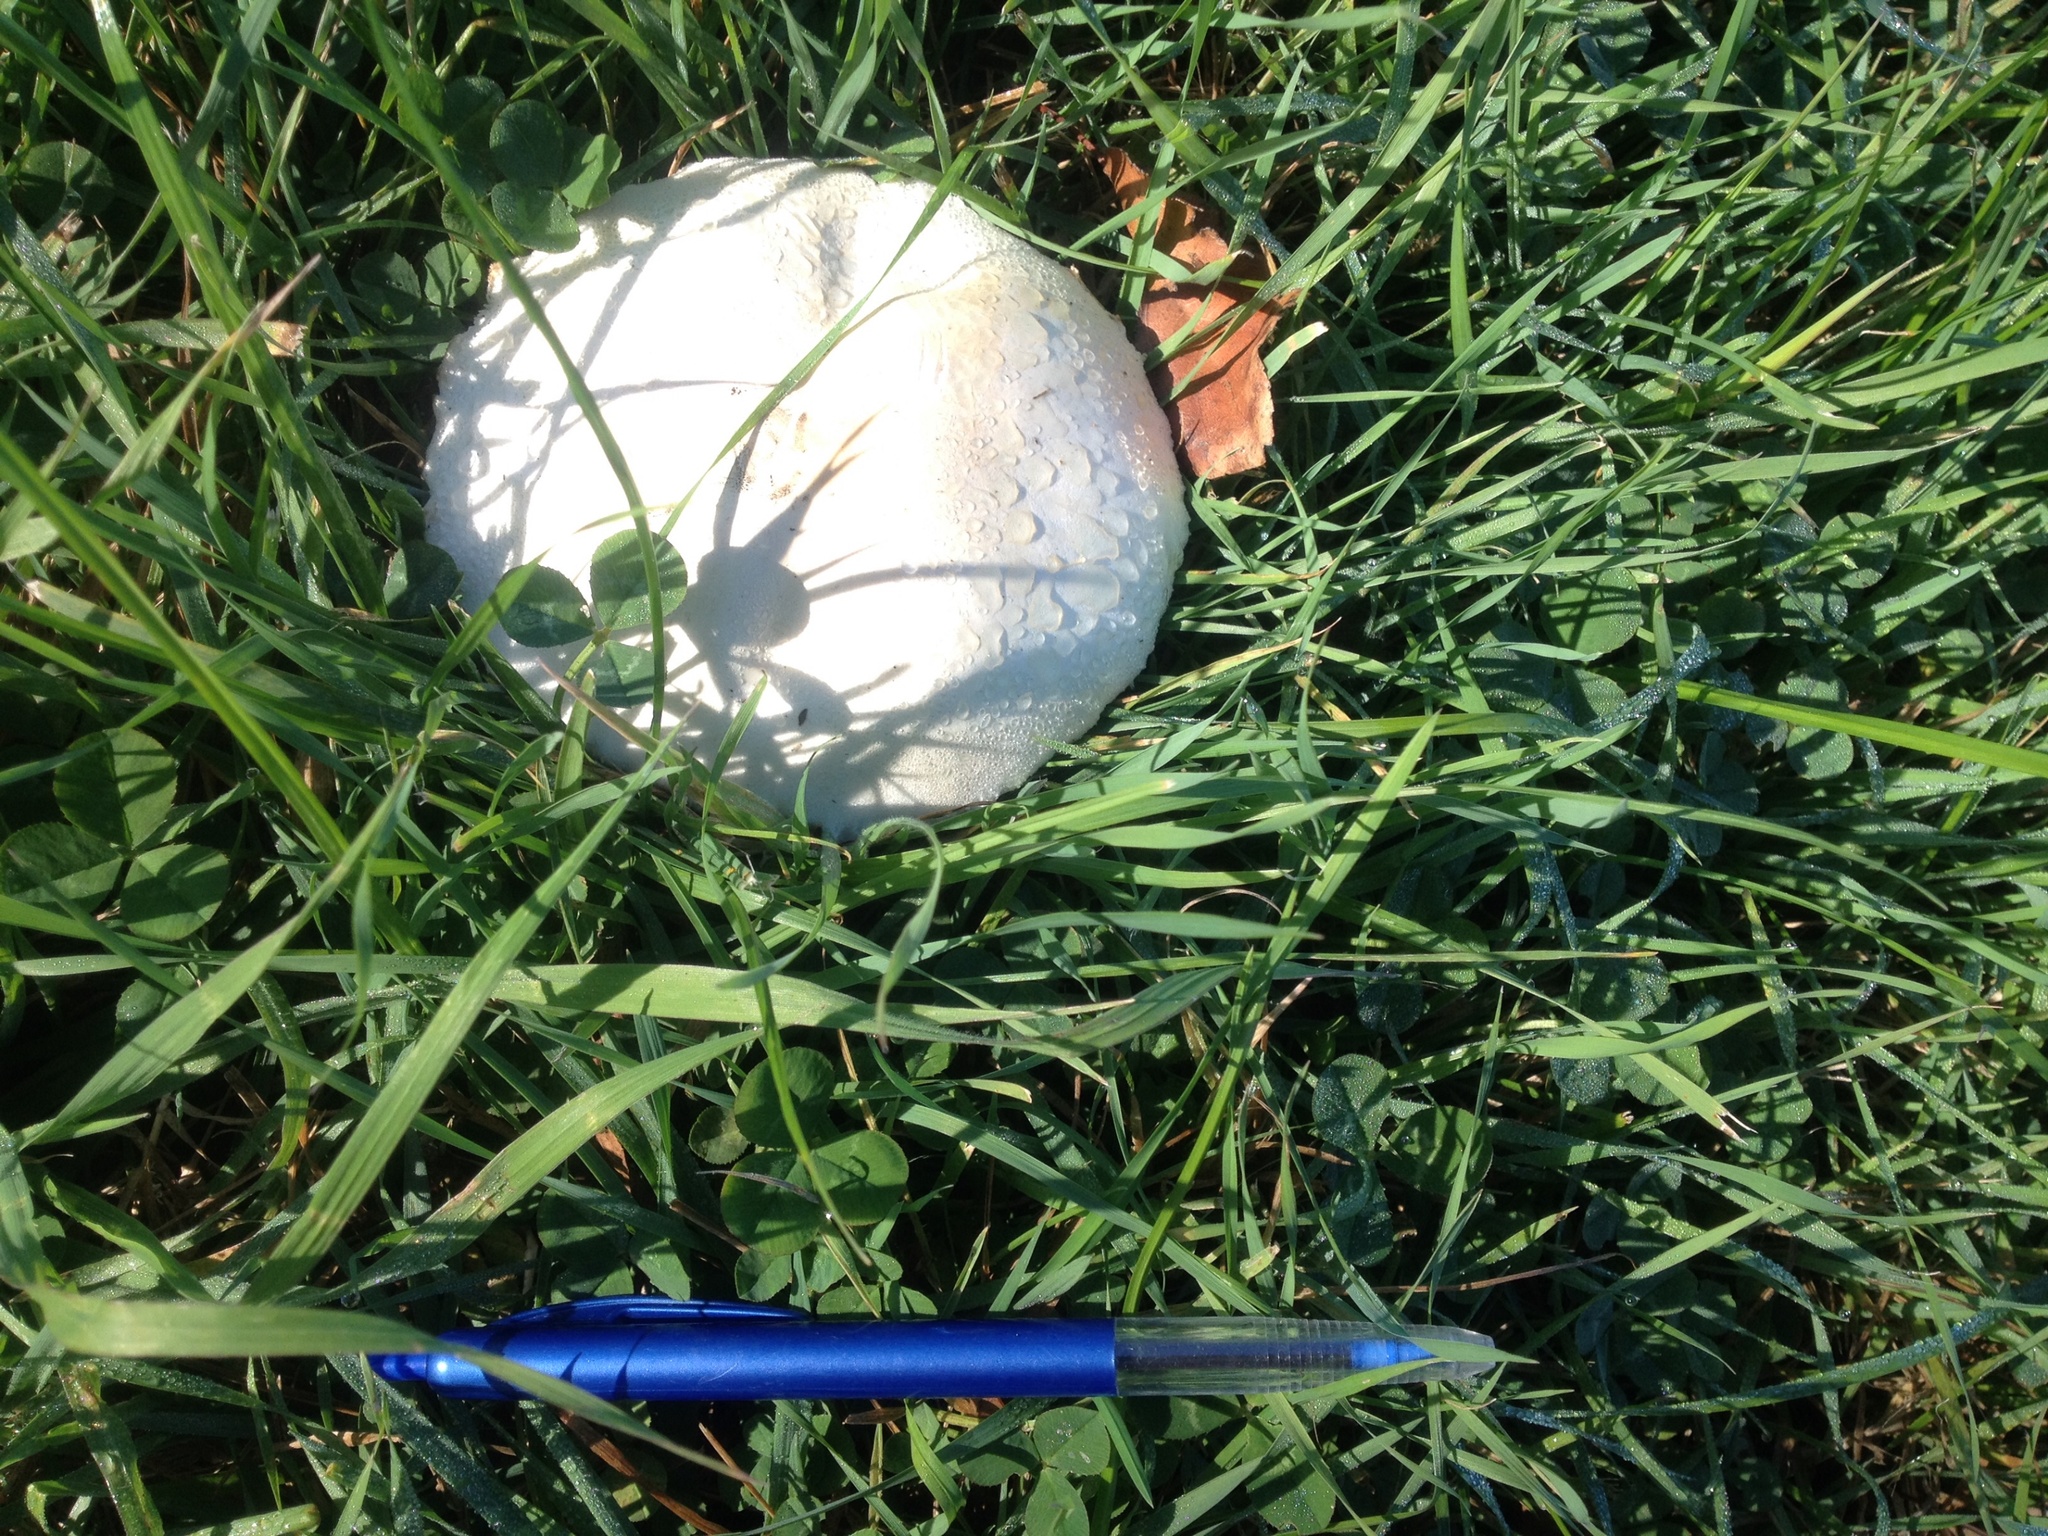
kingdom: Fungi
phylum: Basidiomycota
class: Agaricomycetes
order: Agaricales
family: Agaricaceae
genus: Agaricus
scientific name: Agaricus
